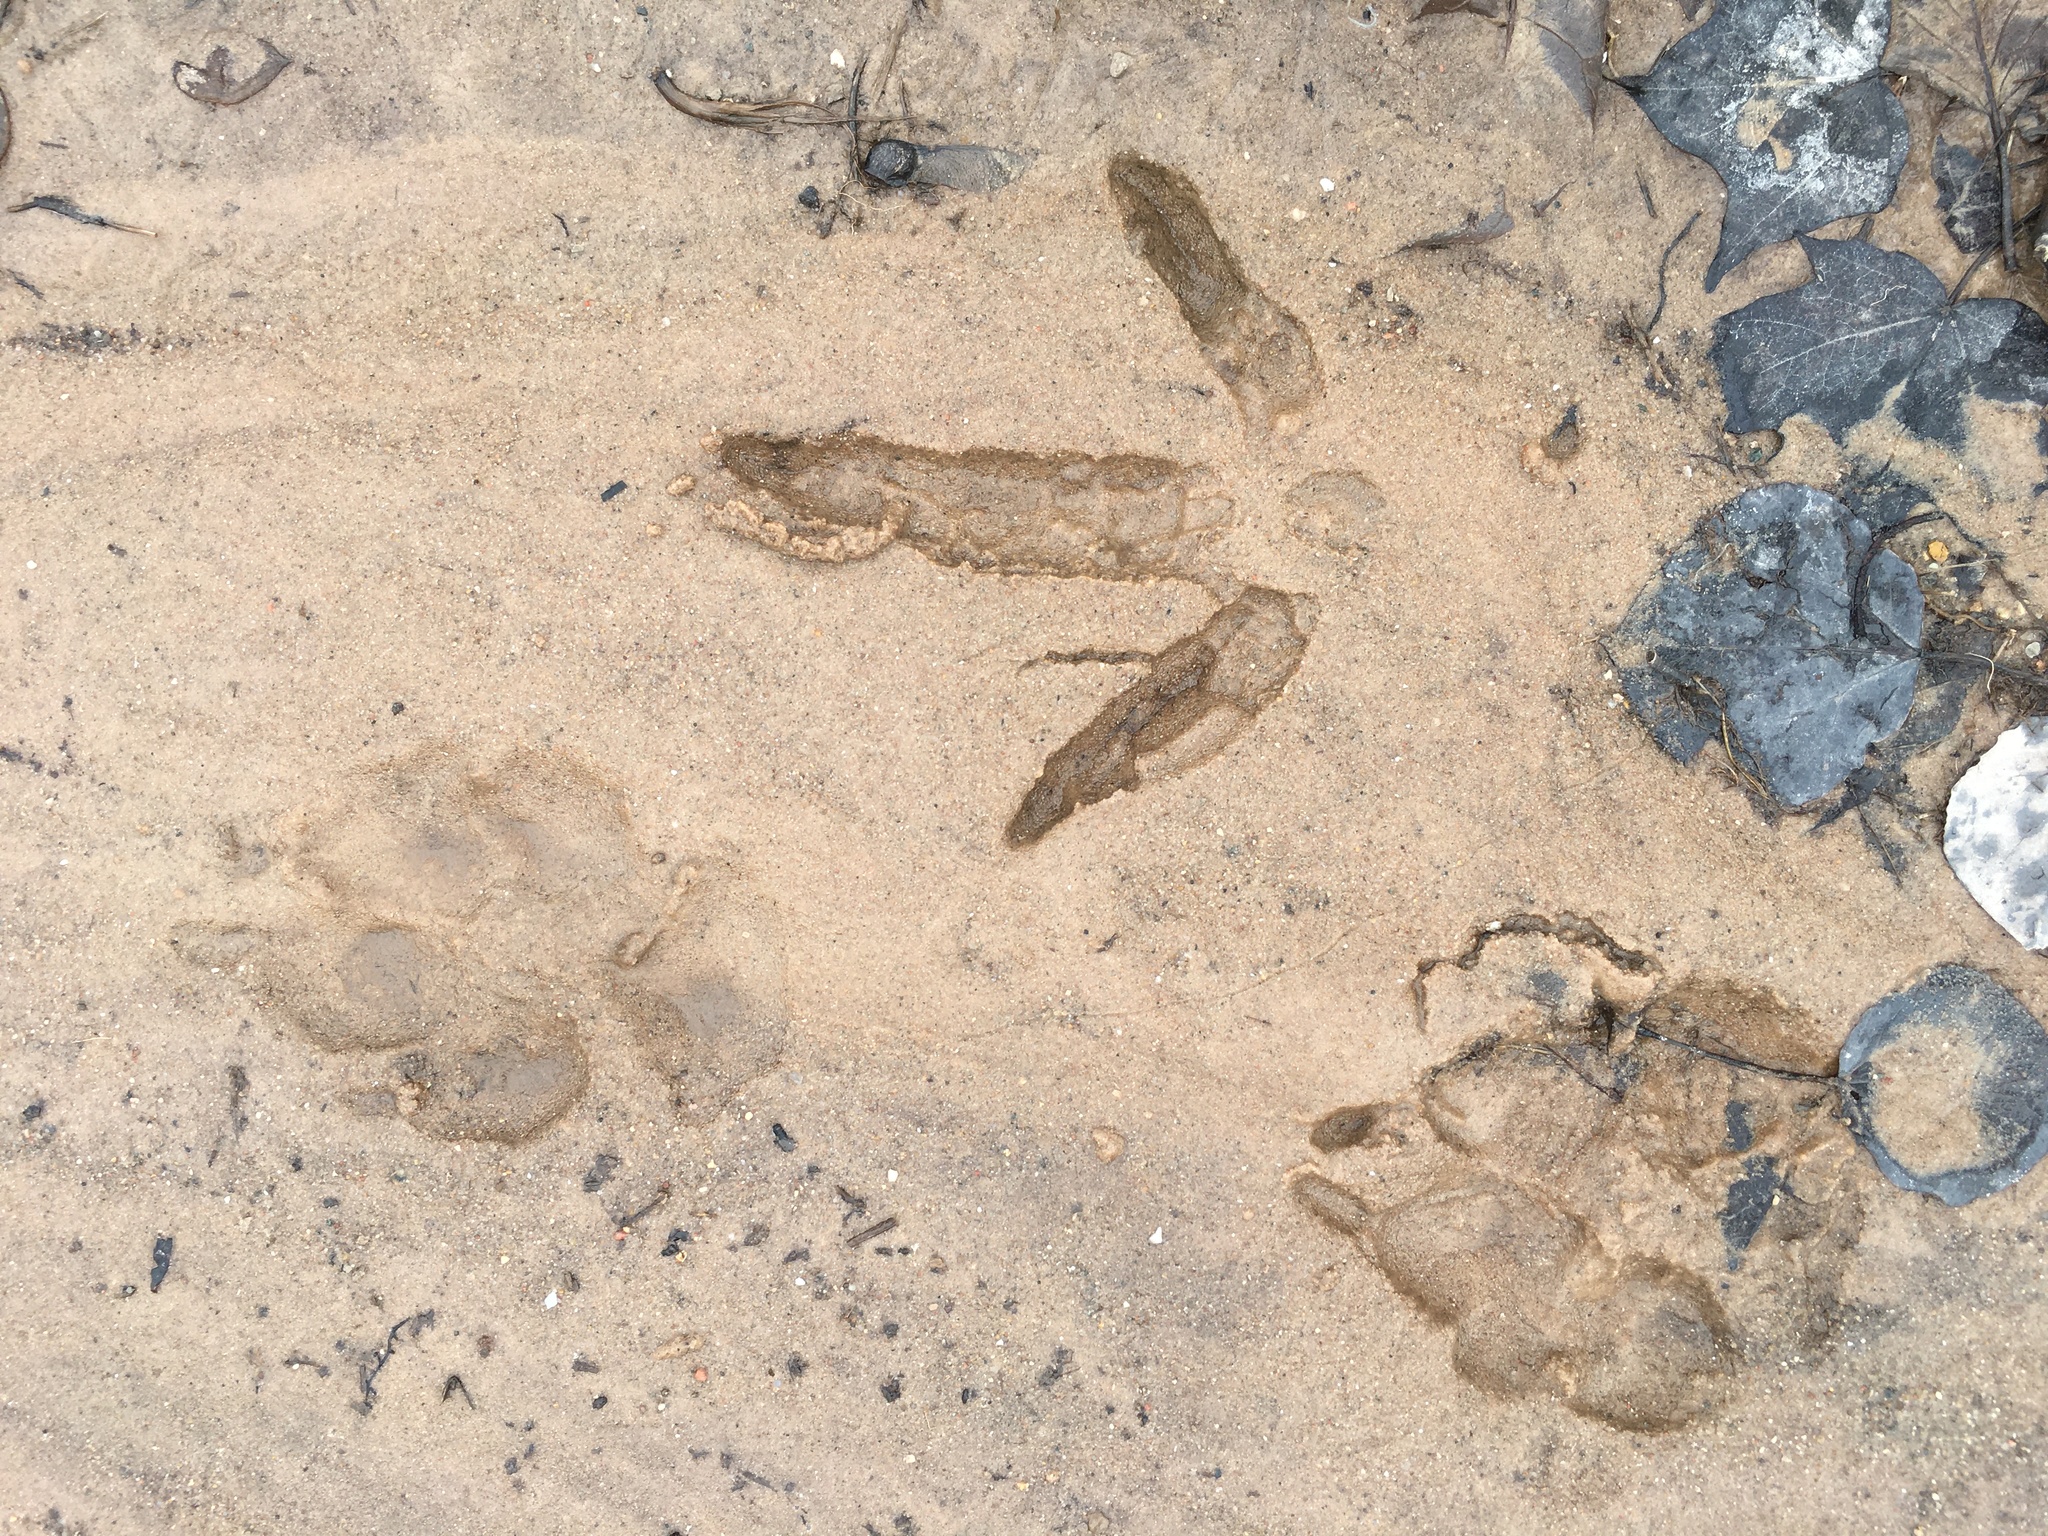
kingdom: Animalia
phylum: Chordata
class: Aves
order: Galliformes
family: Phasianidae
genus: Meleagris
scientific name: Meleagris gallopavo
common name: Wild turkey
